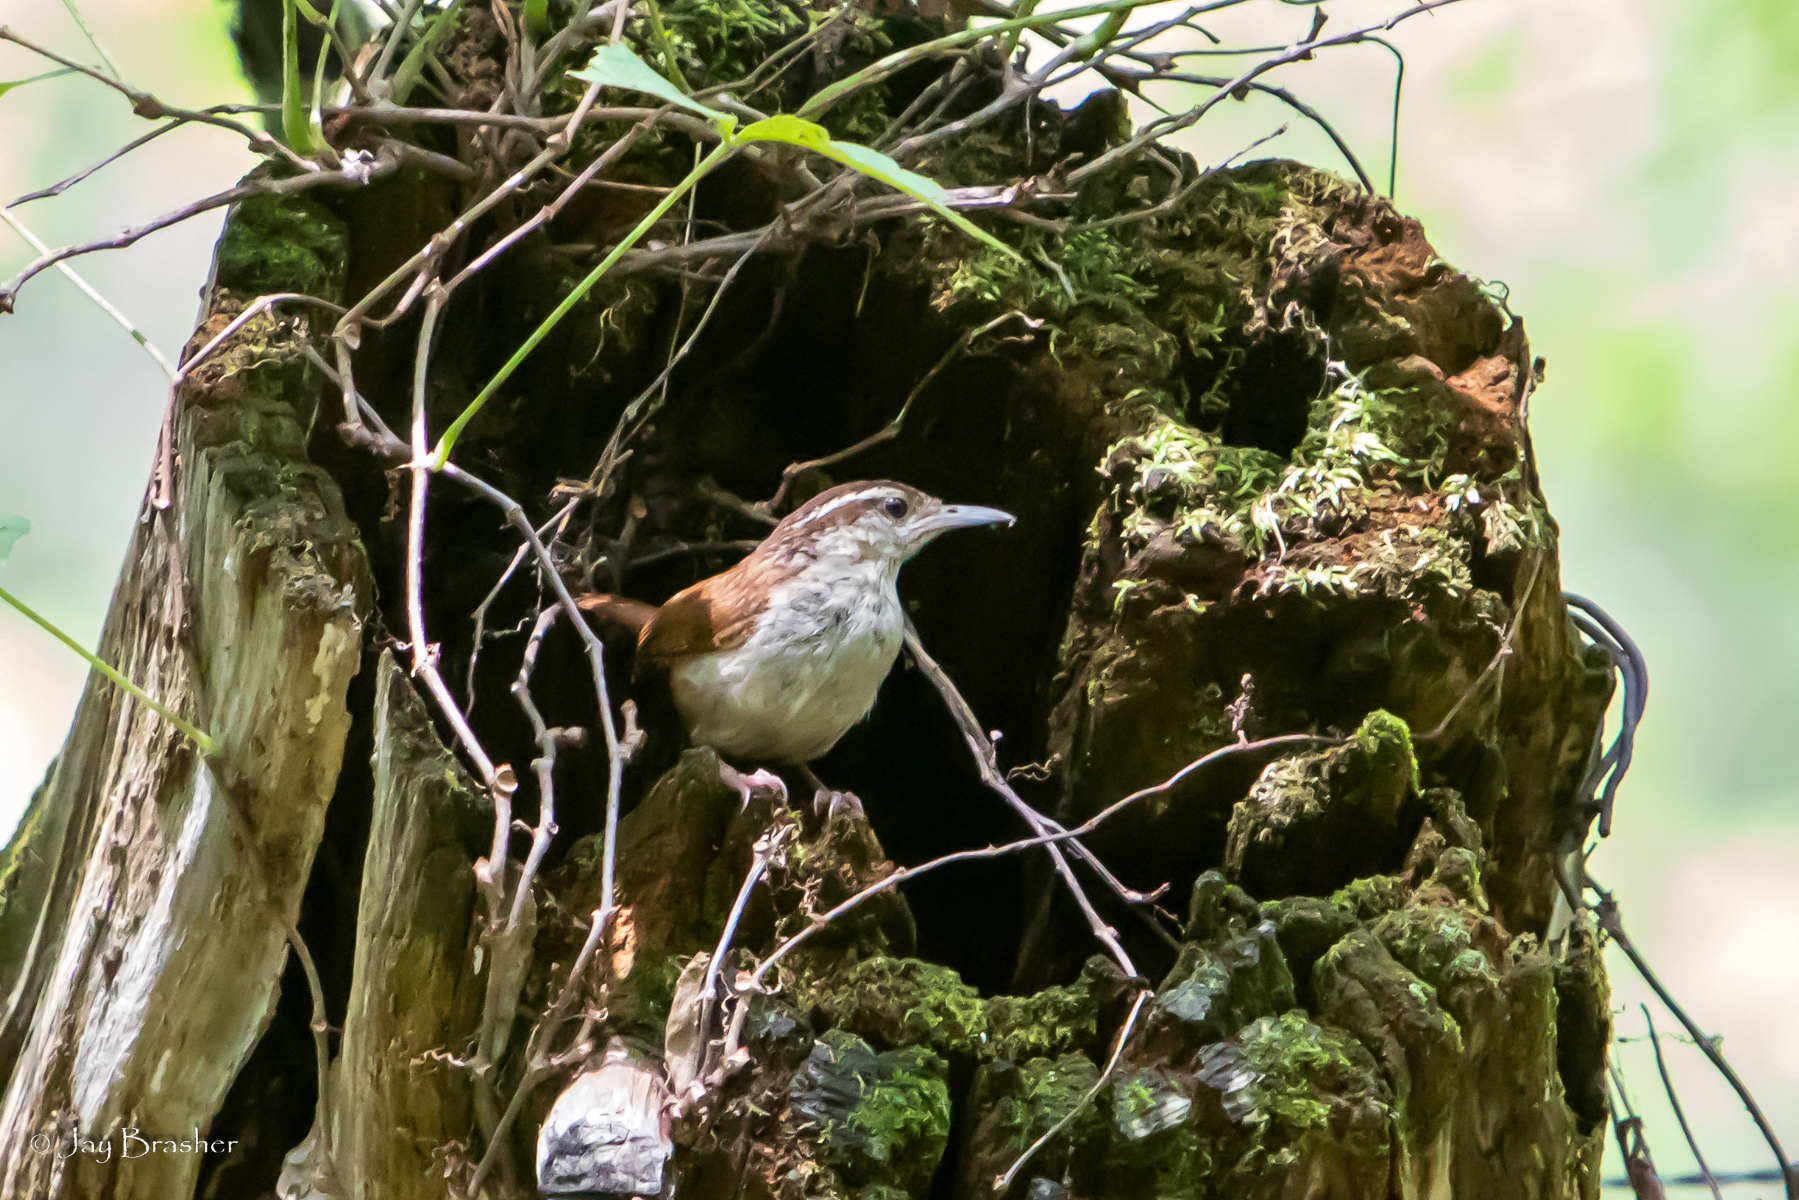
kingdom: Animalia
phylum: Chordata
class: Aves
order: Passeriformes
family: Troglodytidae
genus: Thryothorus
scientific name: Thryothorus ludovicianus
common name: Carolina wren
